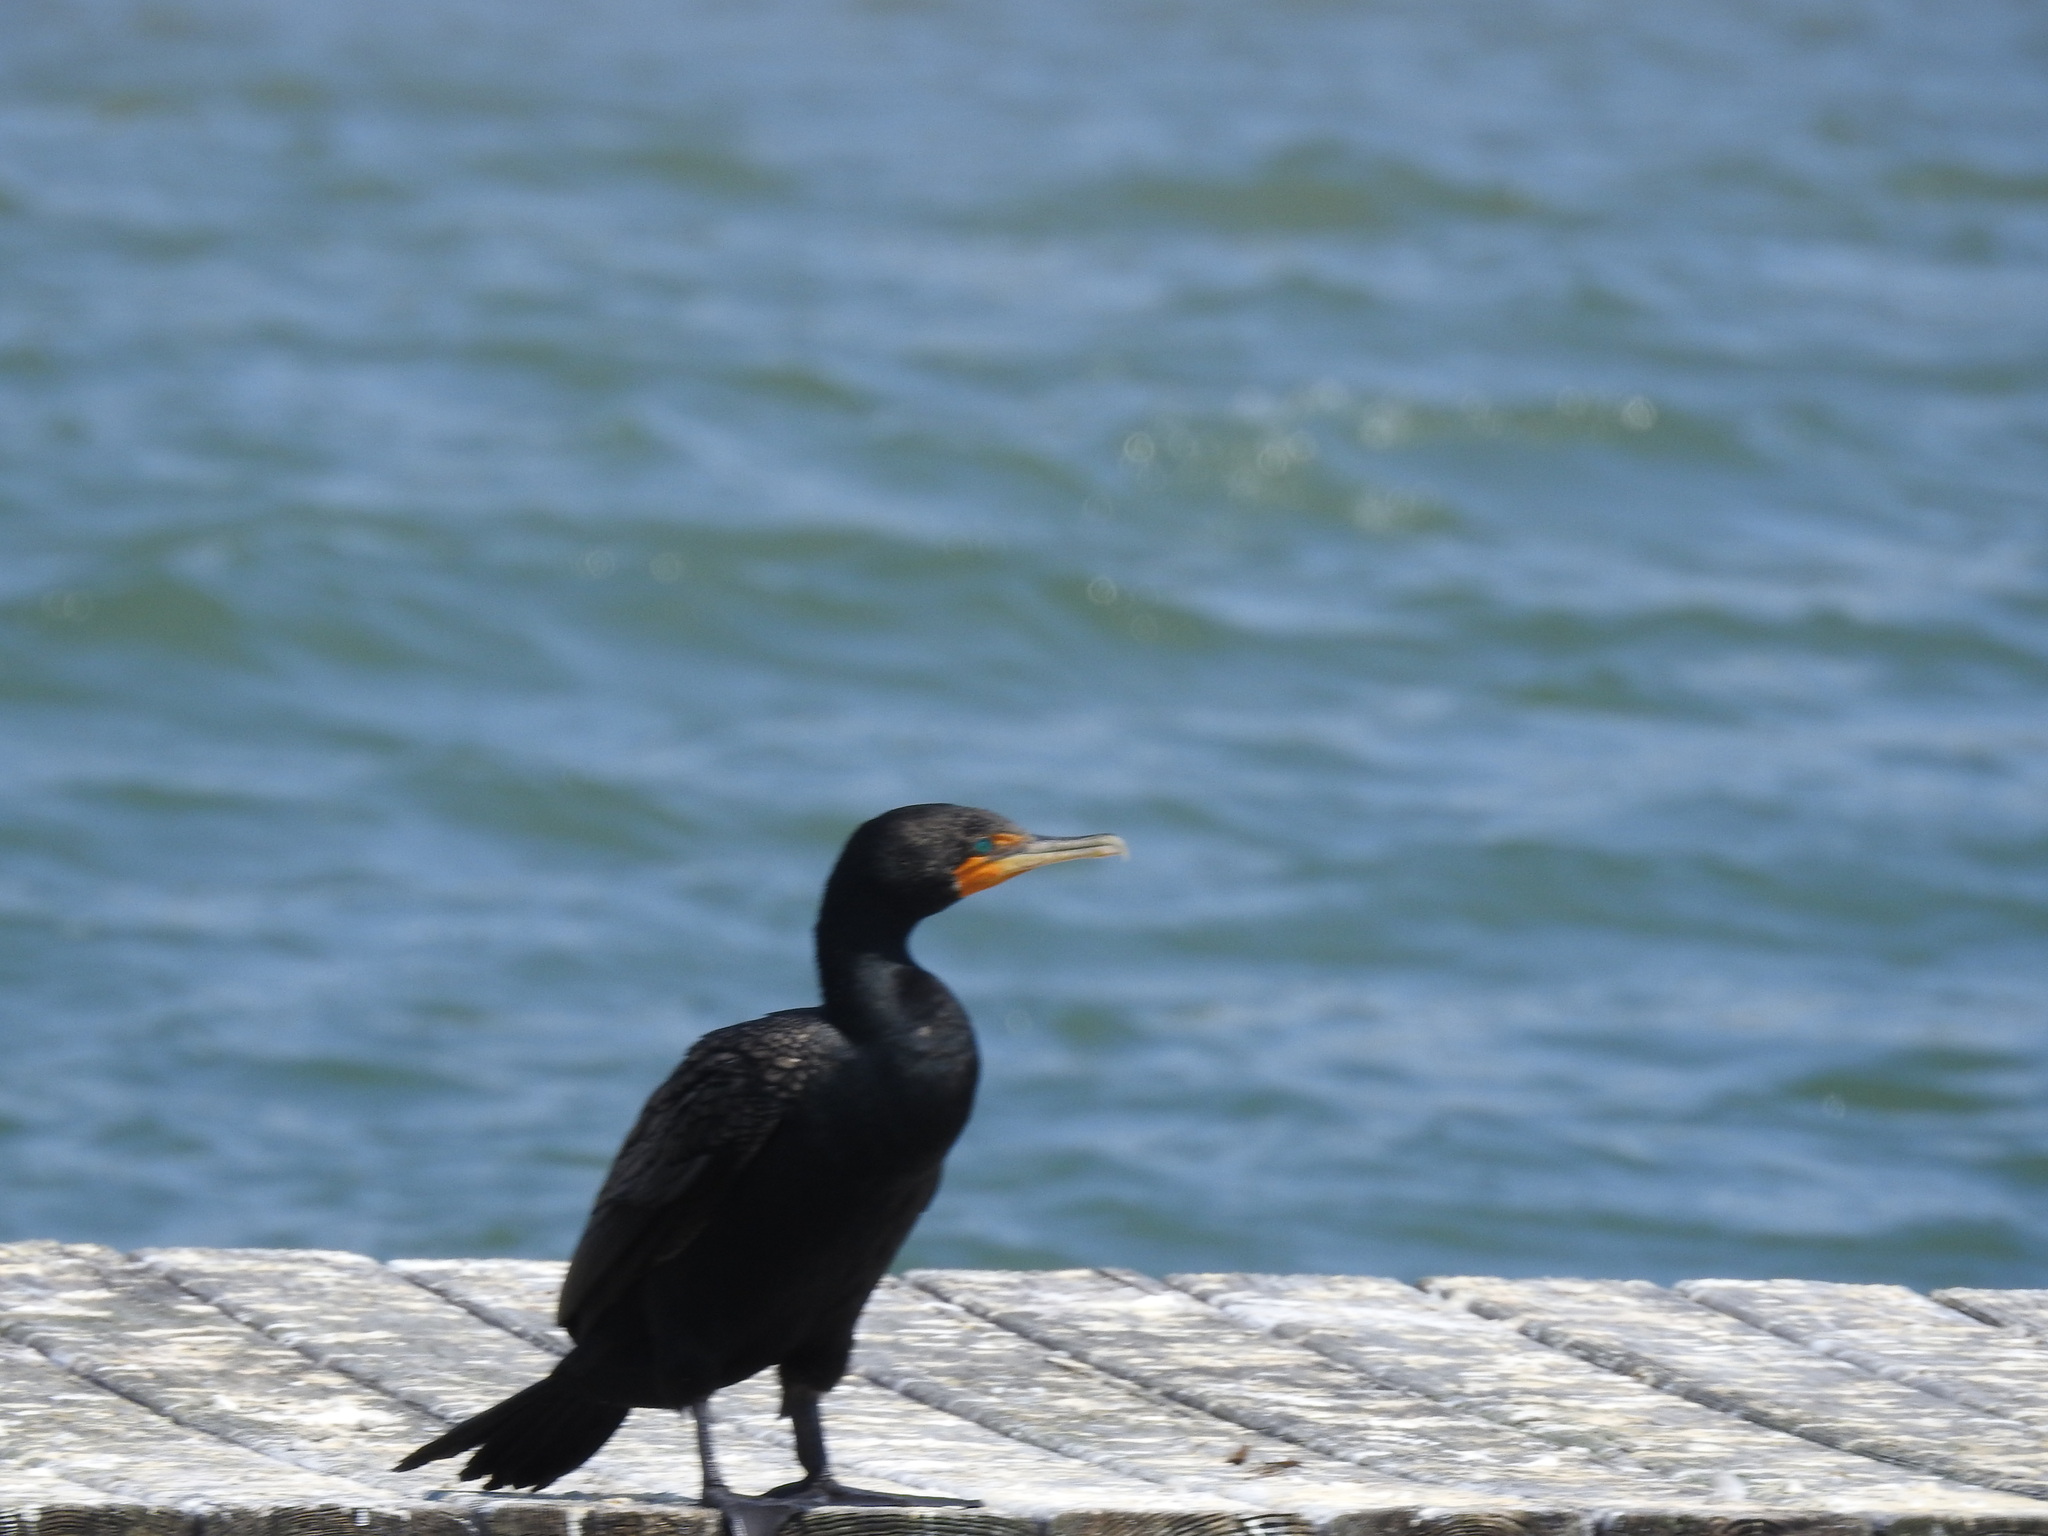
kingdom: Animalia
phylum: Chordata
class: Aves
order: Suliformes
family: Phalacrocoracidae
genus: Phalacrocorax
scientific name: Phalacrocorax auritus
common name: Double-crested cormorant
